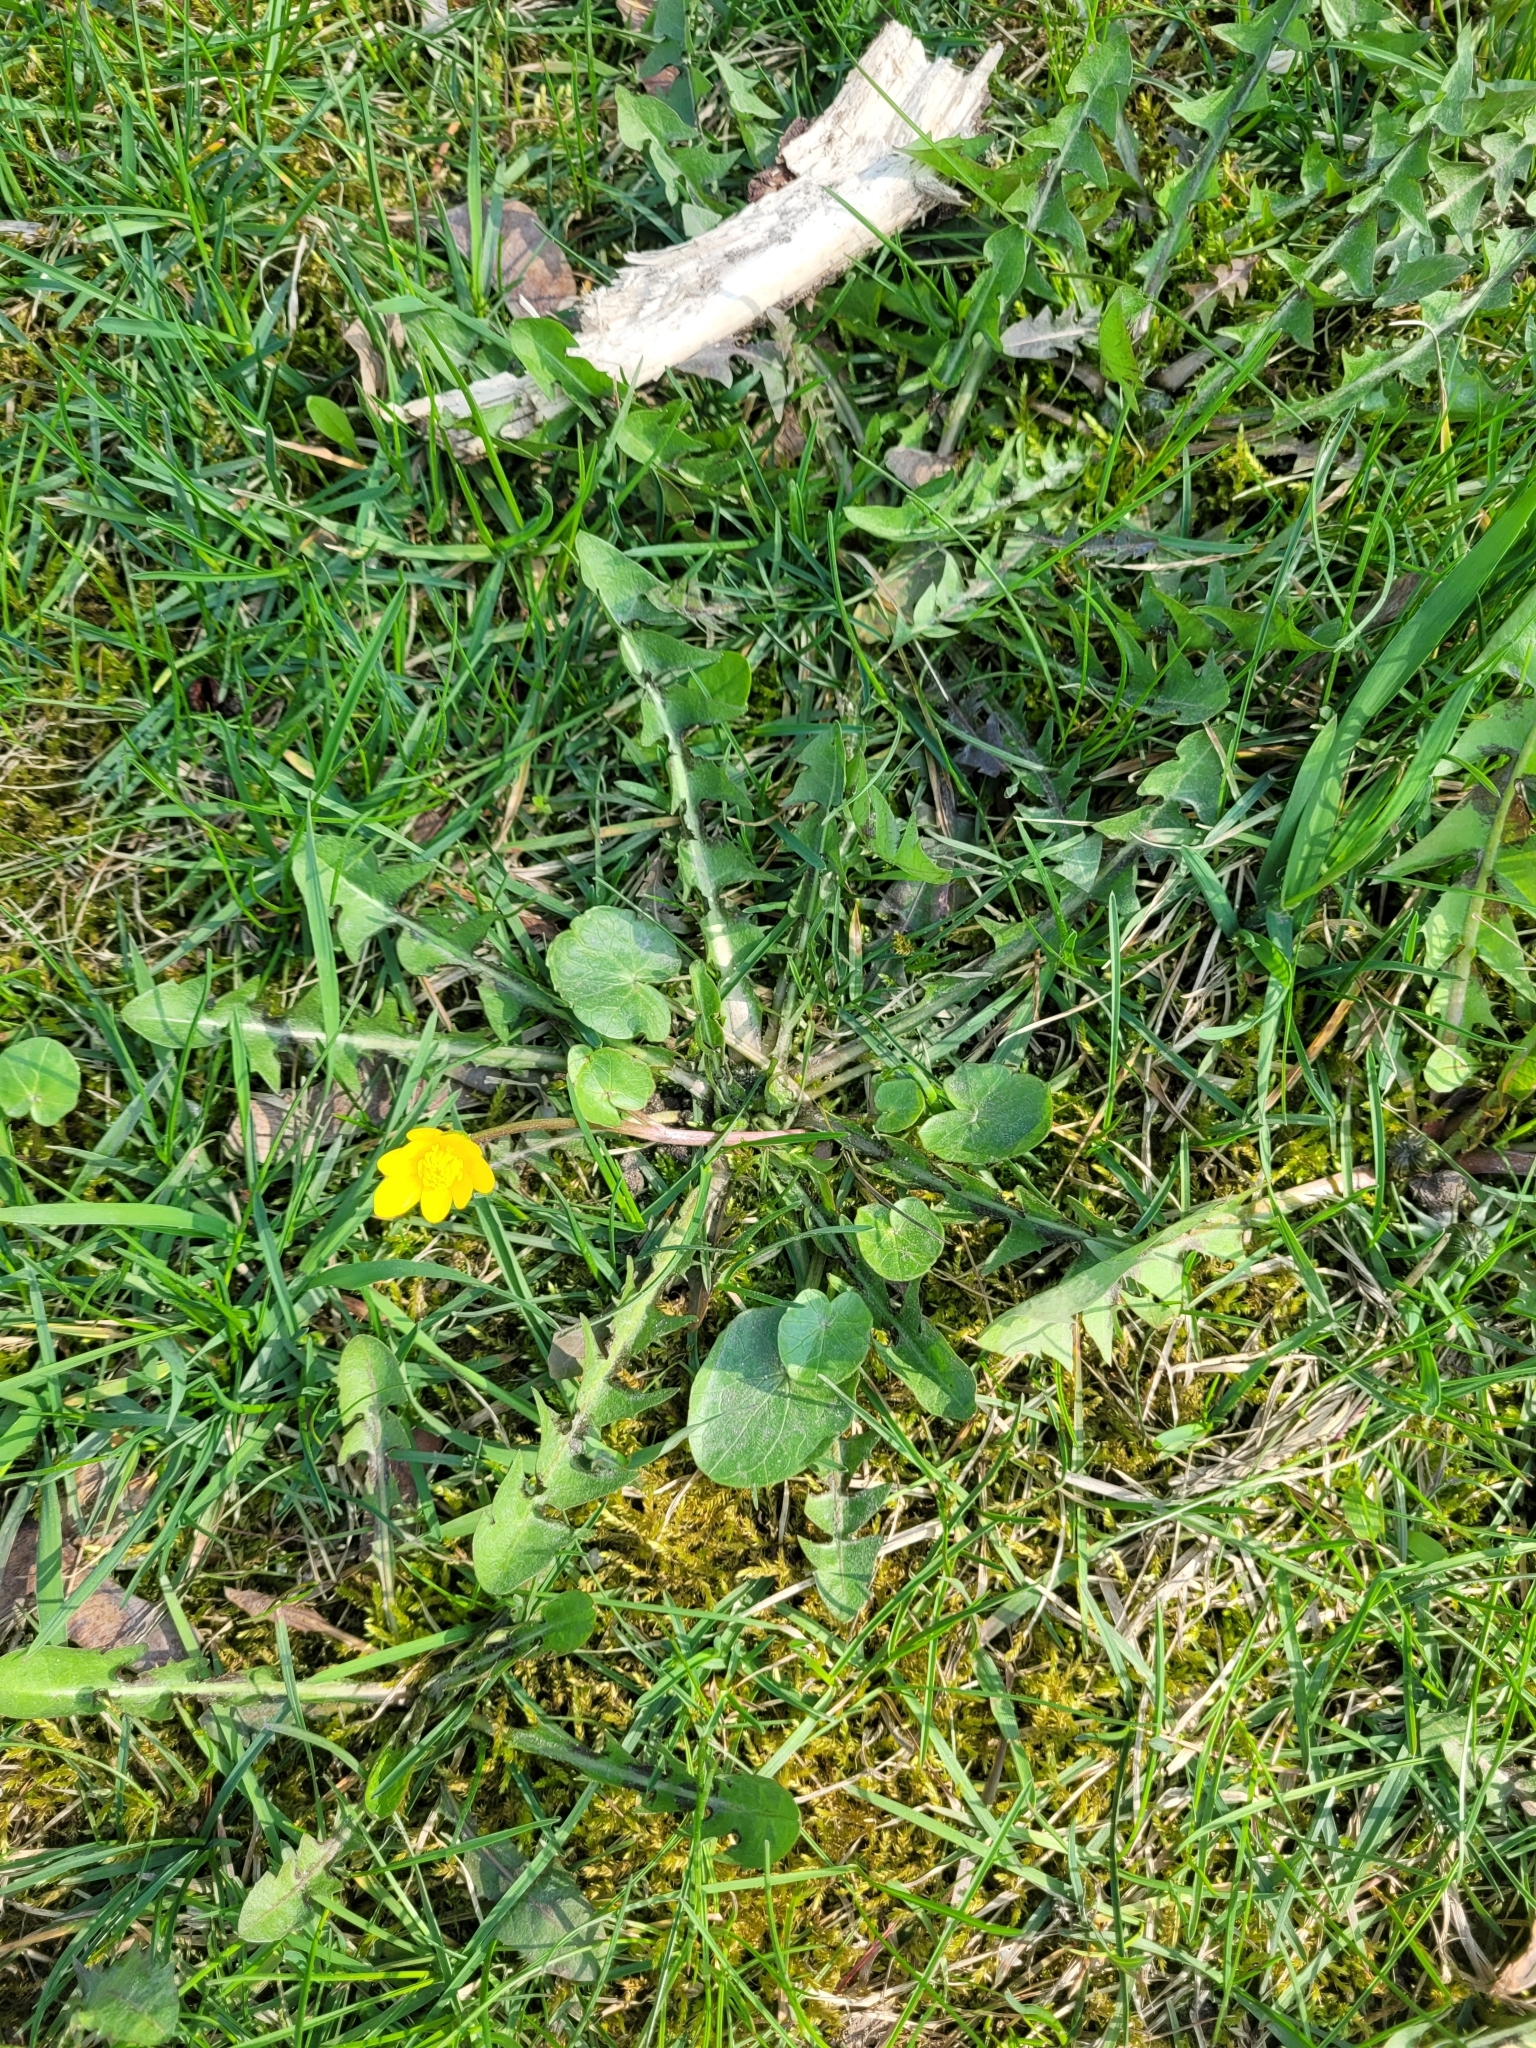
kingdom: Plantae
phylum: Tracheophyta
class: Magnoliopsida
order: Ranunculales
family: Ranunculaceae
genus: Ficaria
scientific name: Ficaria verna
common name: Lesser celandine
